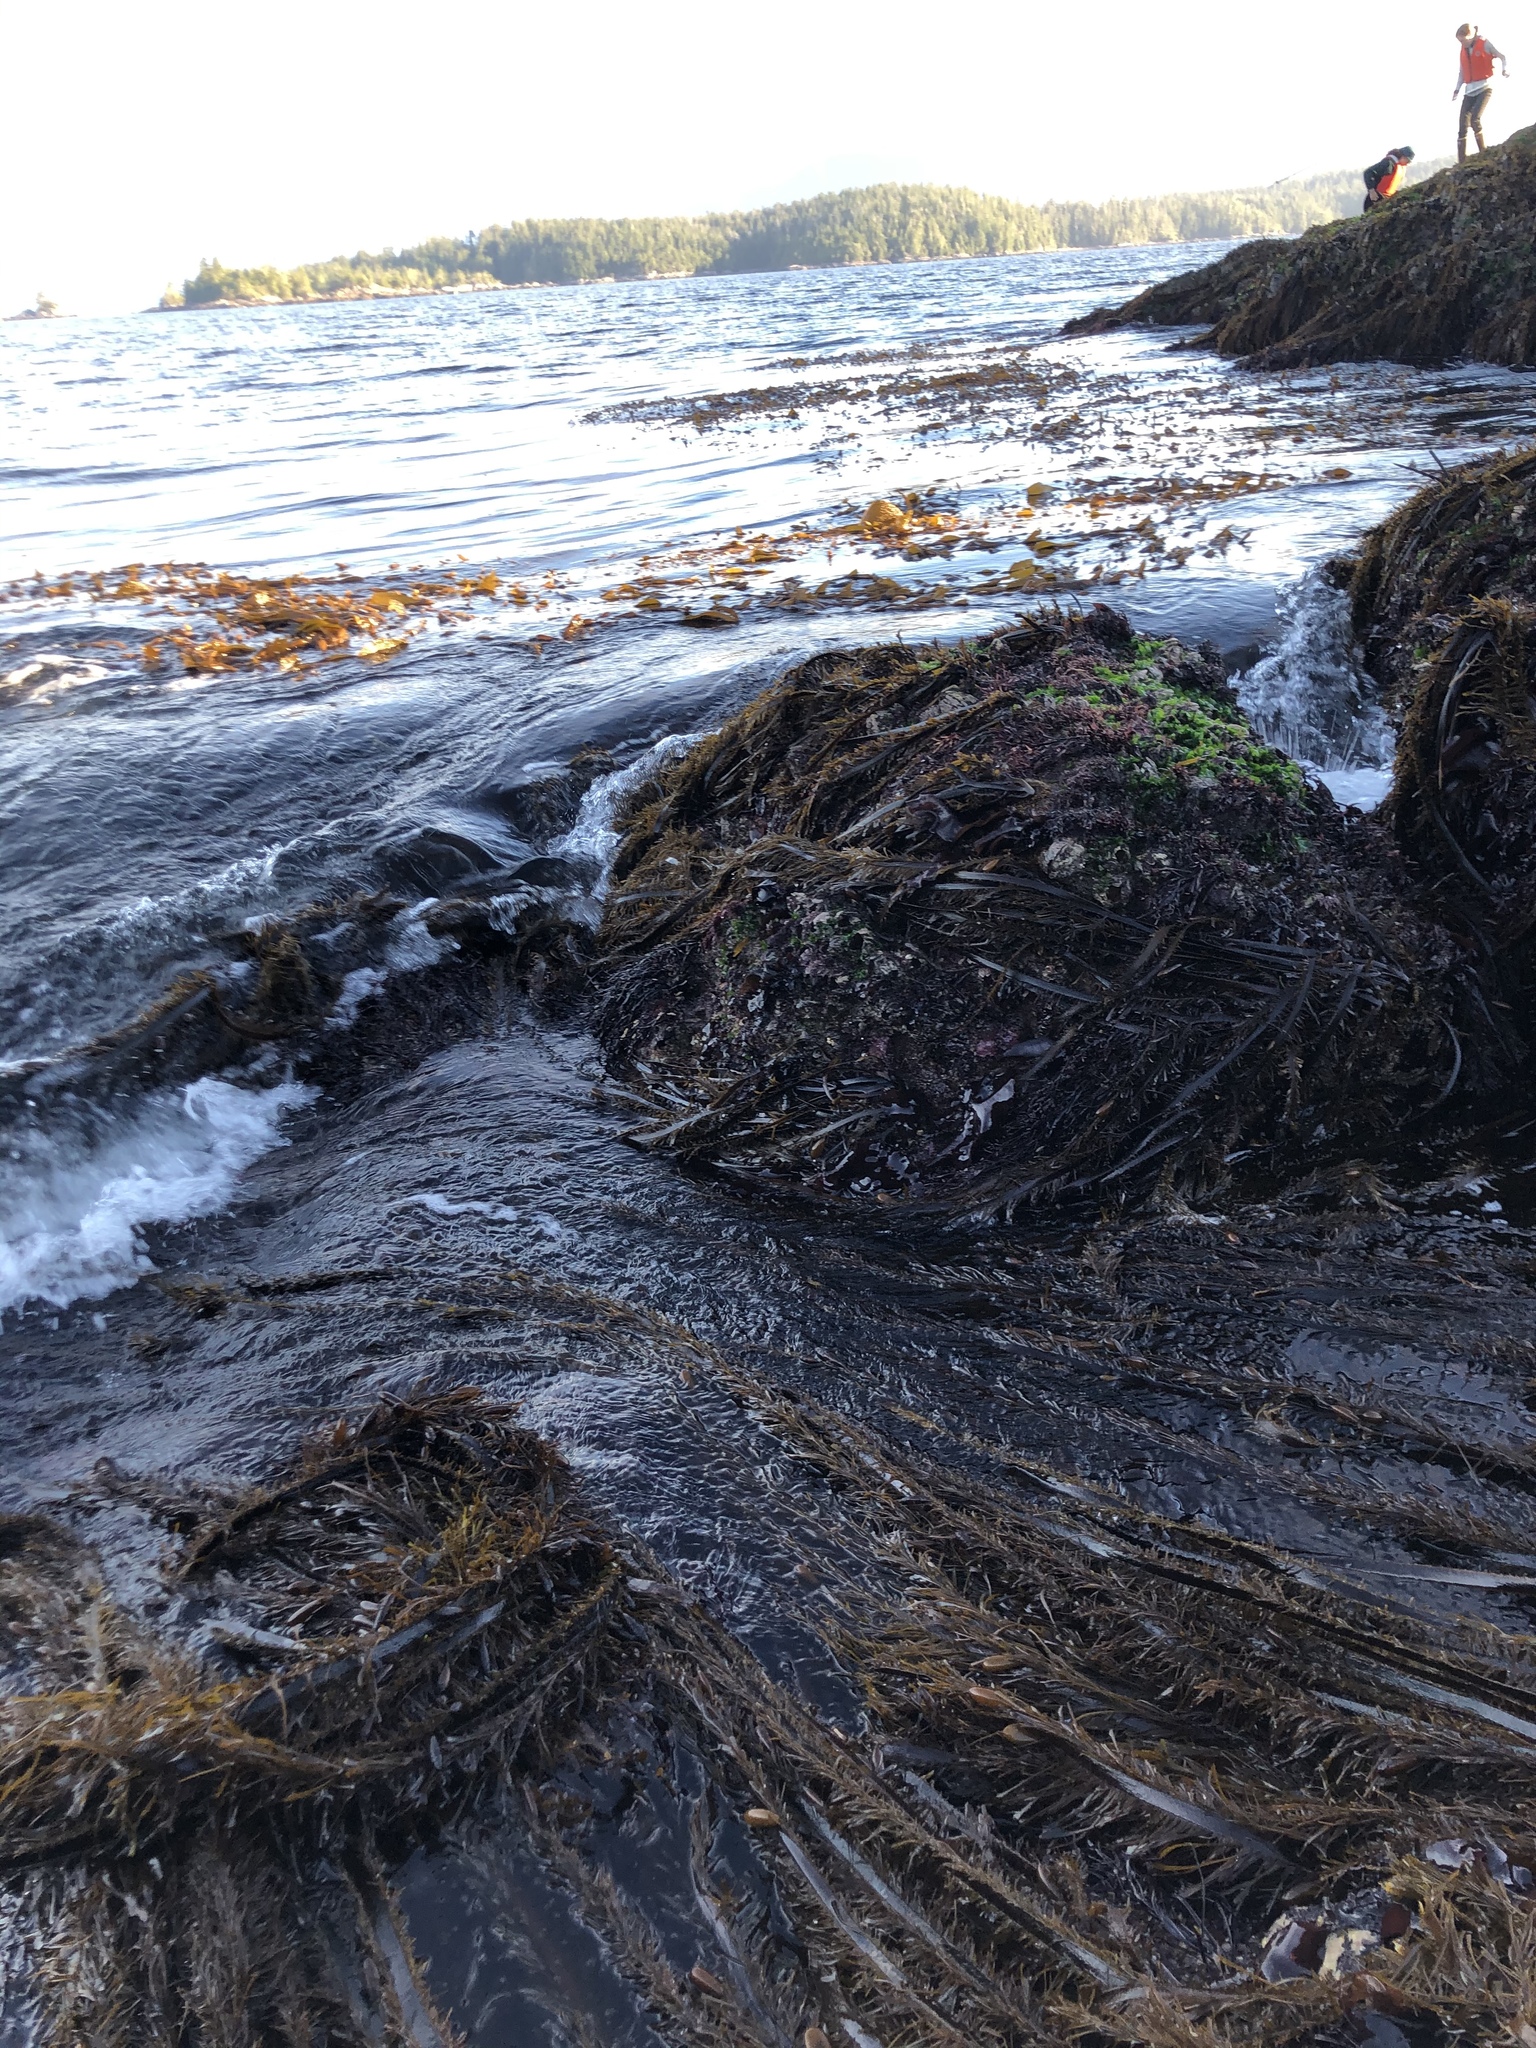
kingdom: Chromista
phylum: Ochrophyta
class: Phaeophyceae
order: Laminariales
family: Lessoniaceae
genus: Egregia
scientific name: Egregia menziesii
